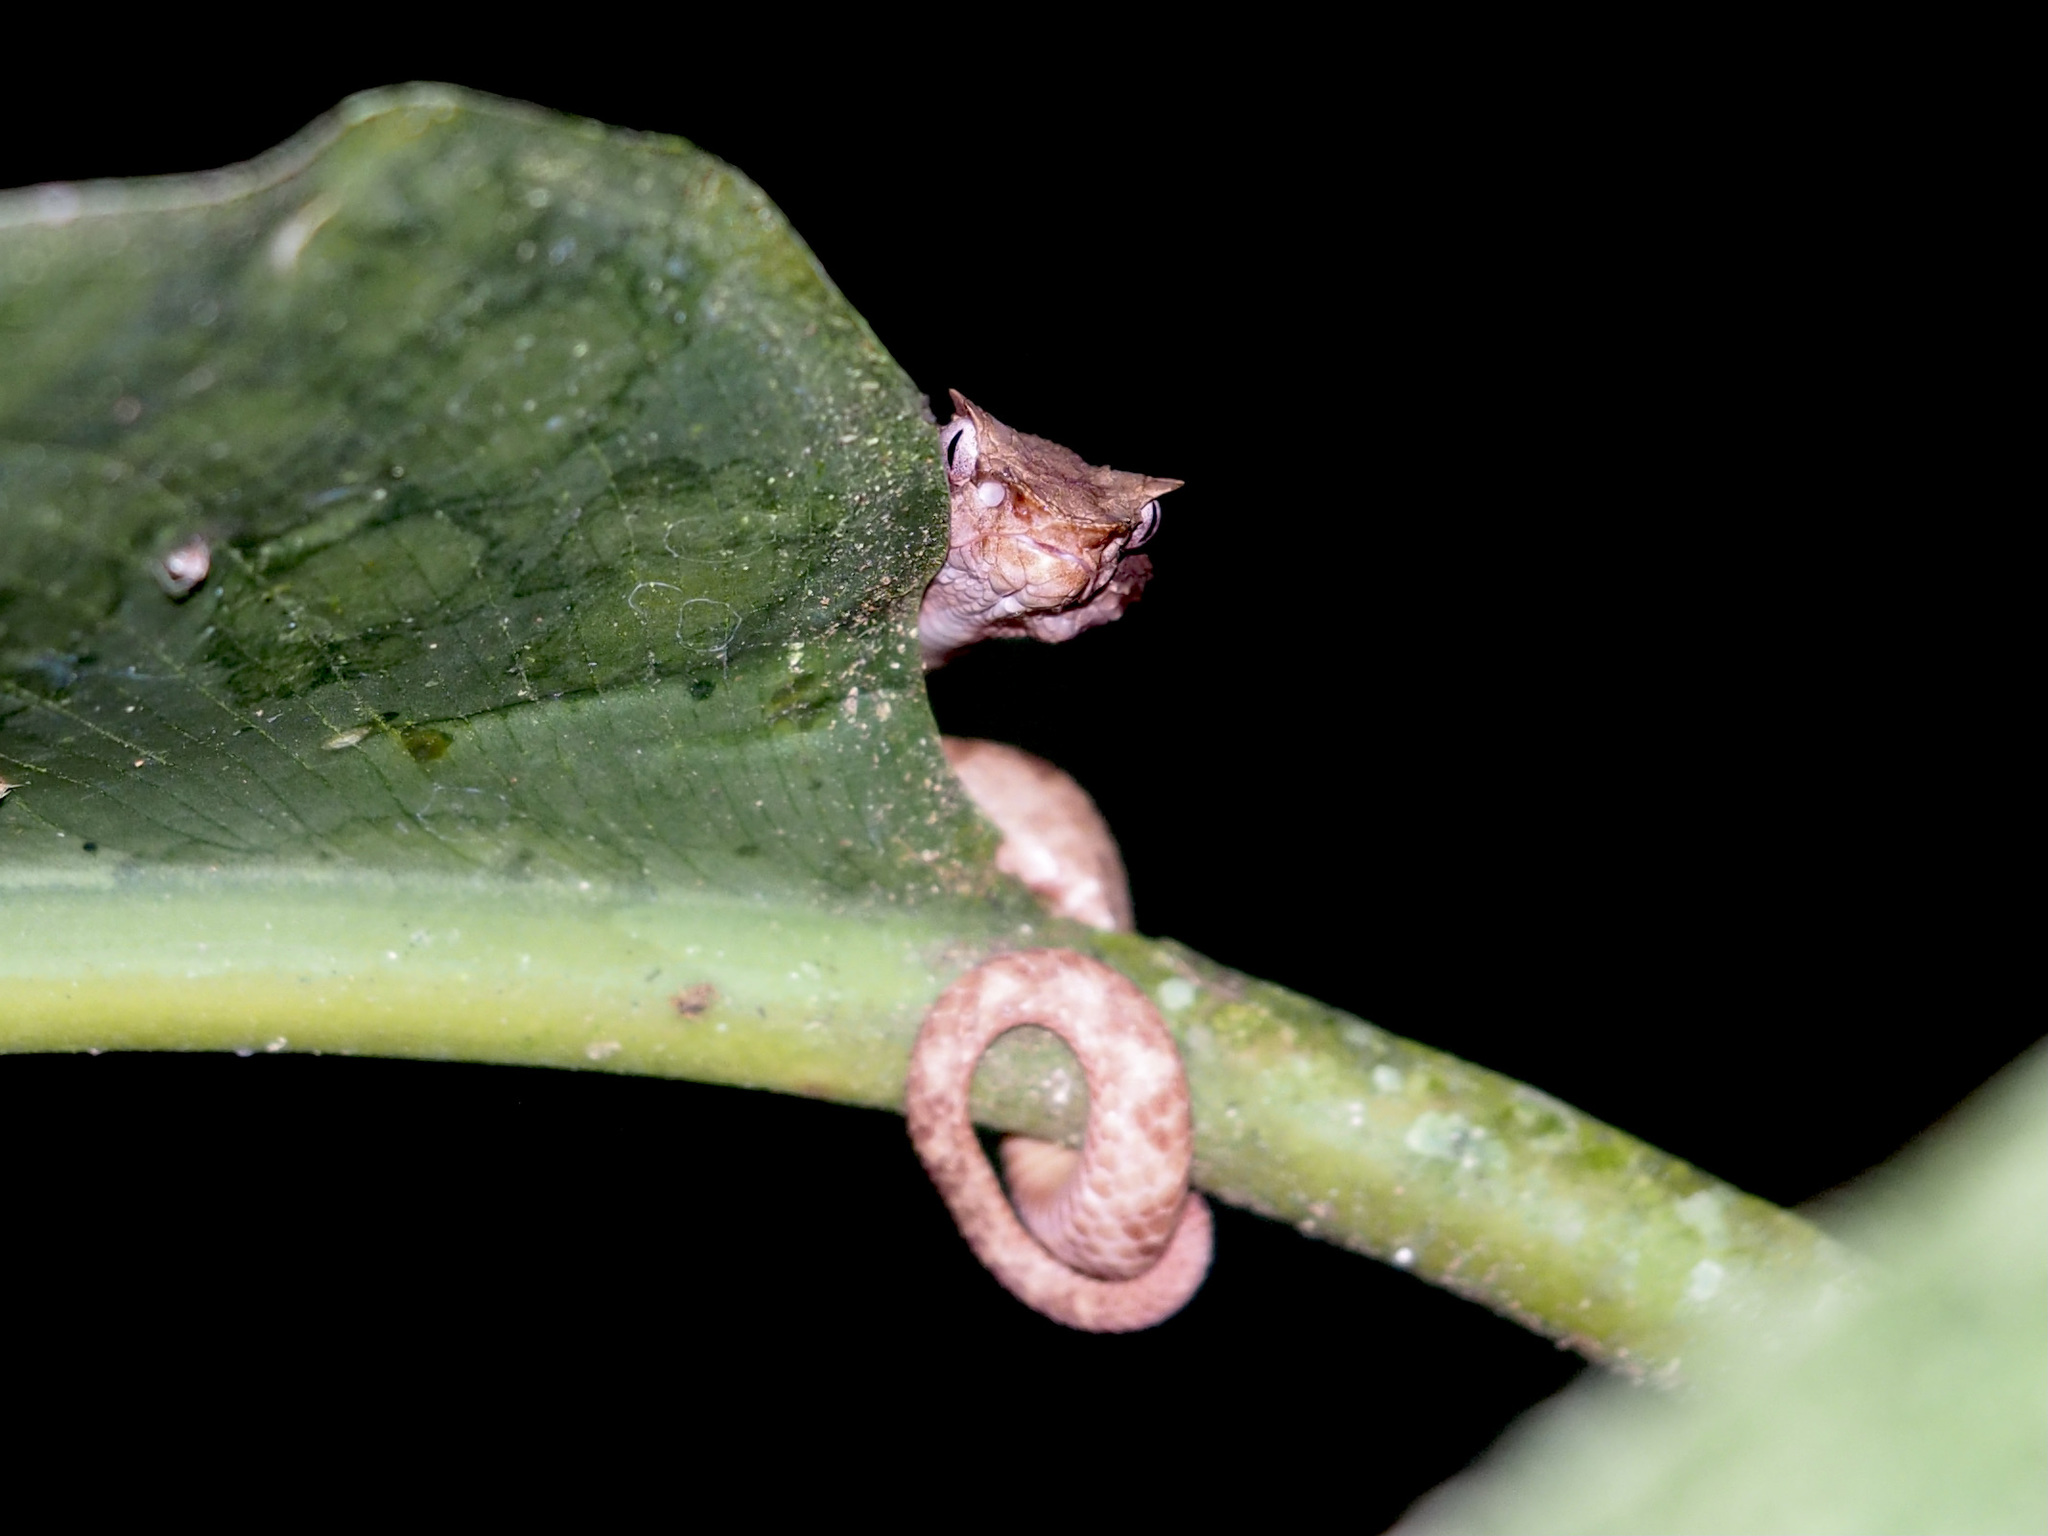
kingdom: Animalia
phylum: Chordata
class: Squamata
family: Viperidae
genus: Bothriechis
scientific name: Bothriechis schlegelii
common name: Eyelash viper
